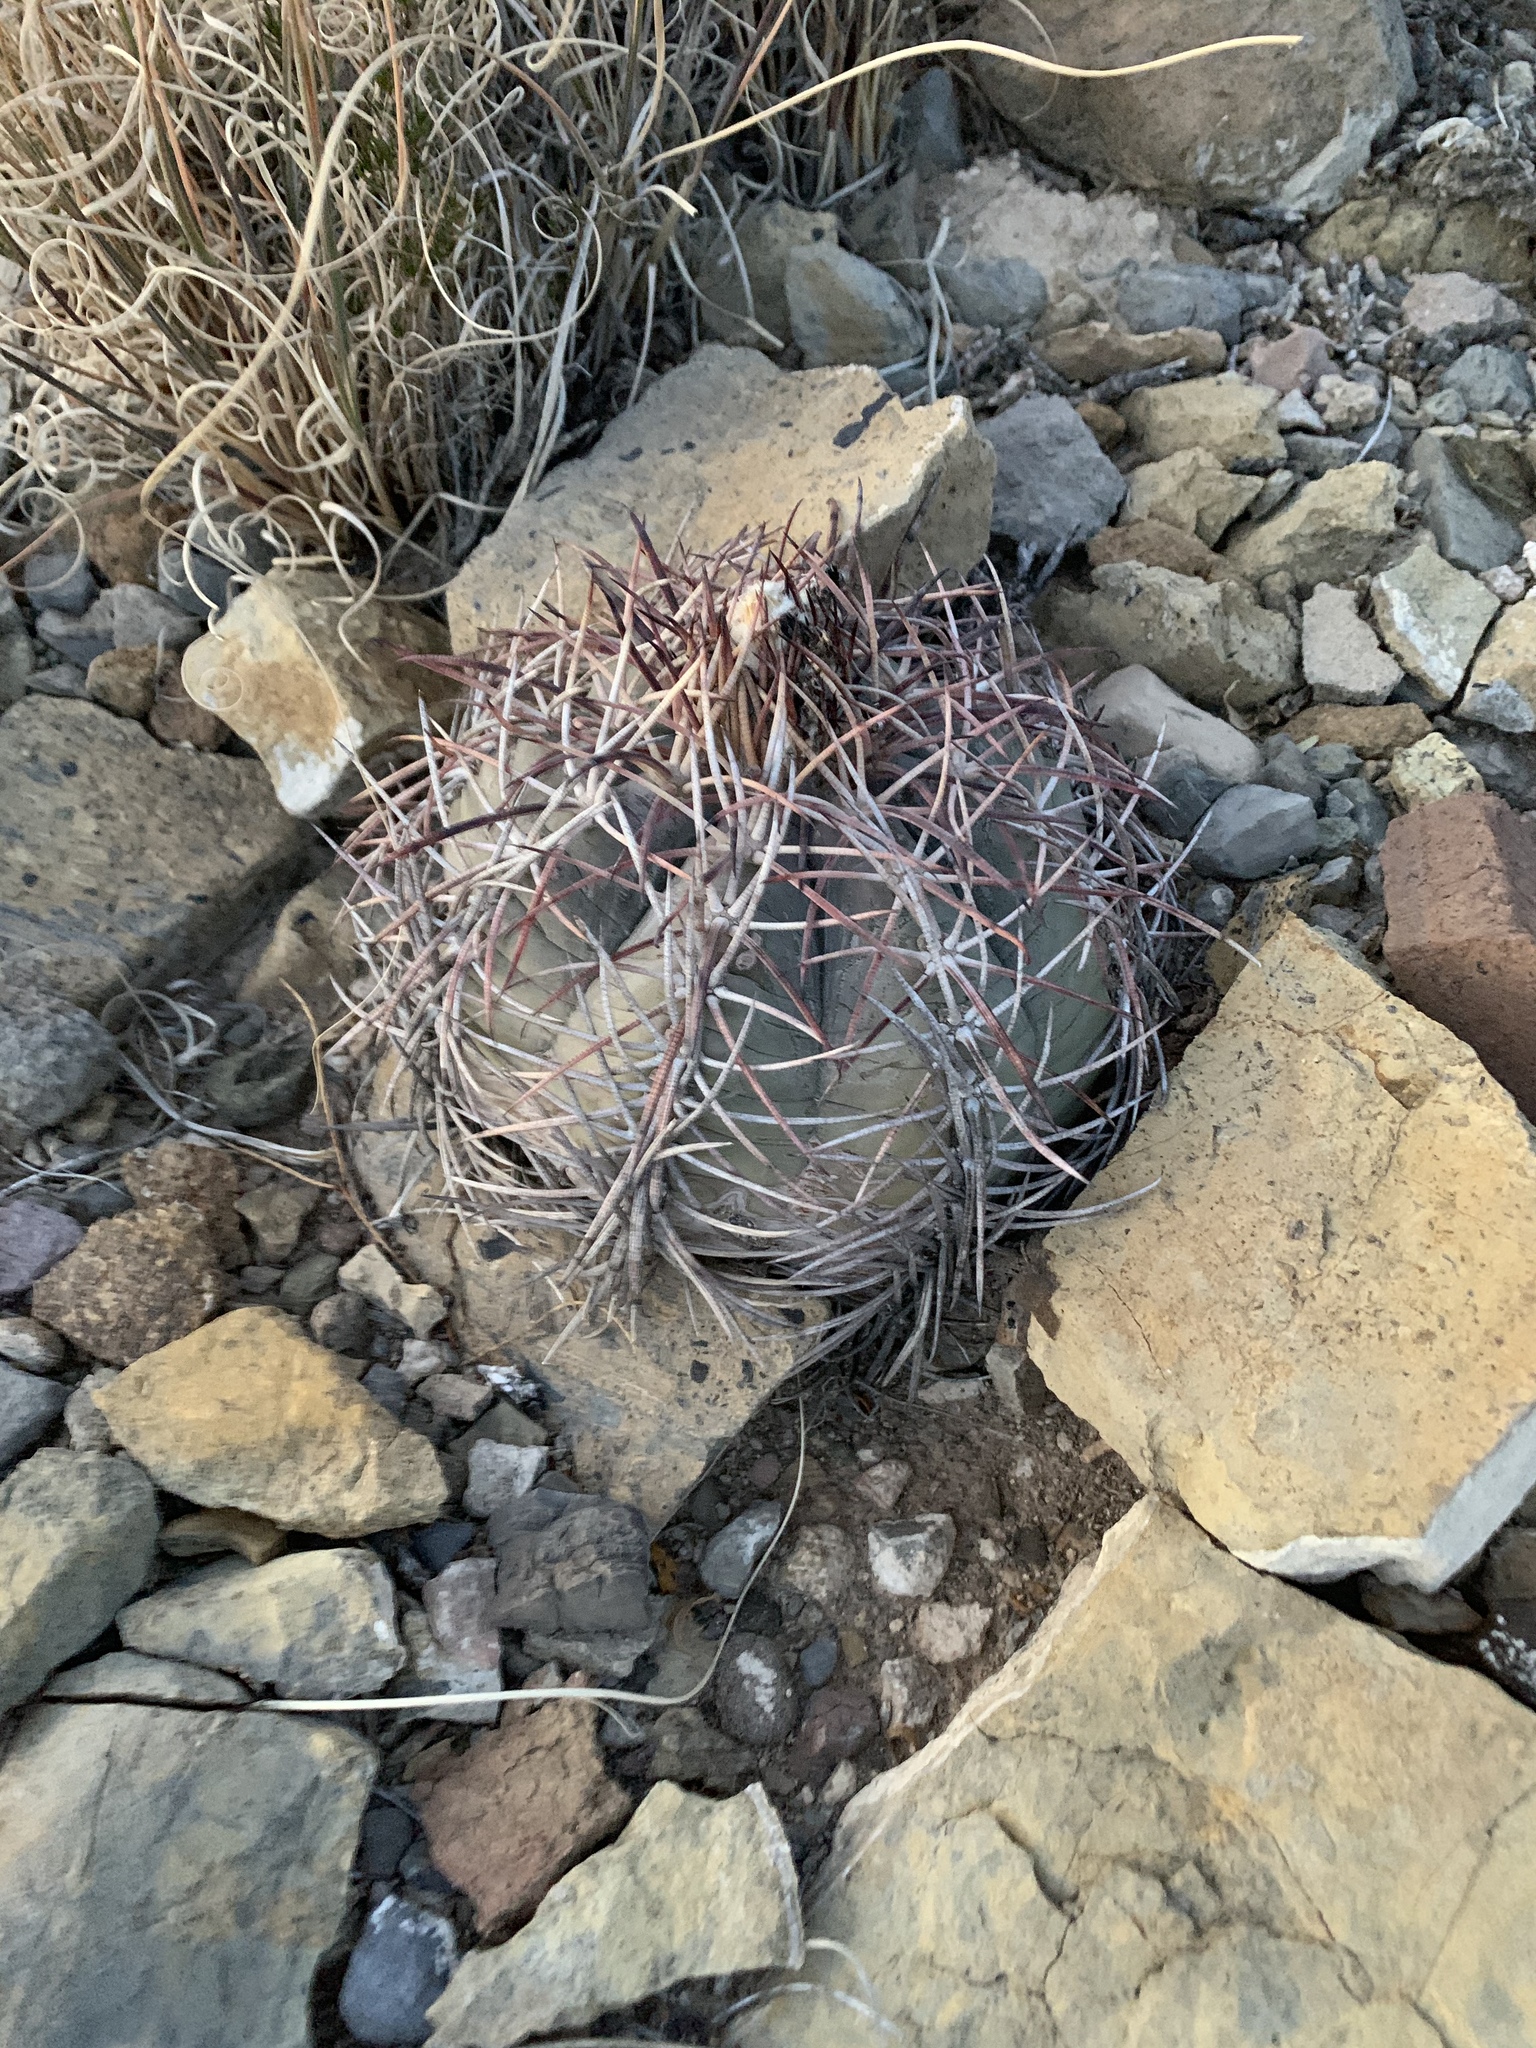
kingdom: Plantae
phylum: Tracheophyta
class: Magnoliopsida
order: Caryophyllales
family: Cactaceae
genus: Echinocactus
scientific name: Echinocactus horizonthalonius
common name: Devilshead
